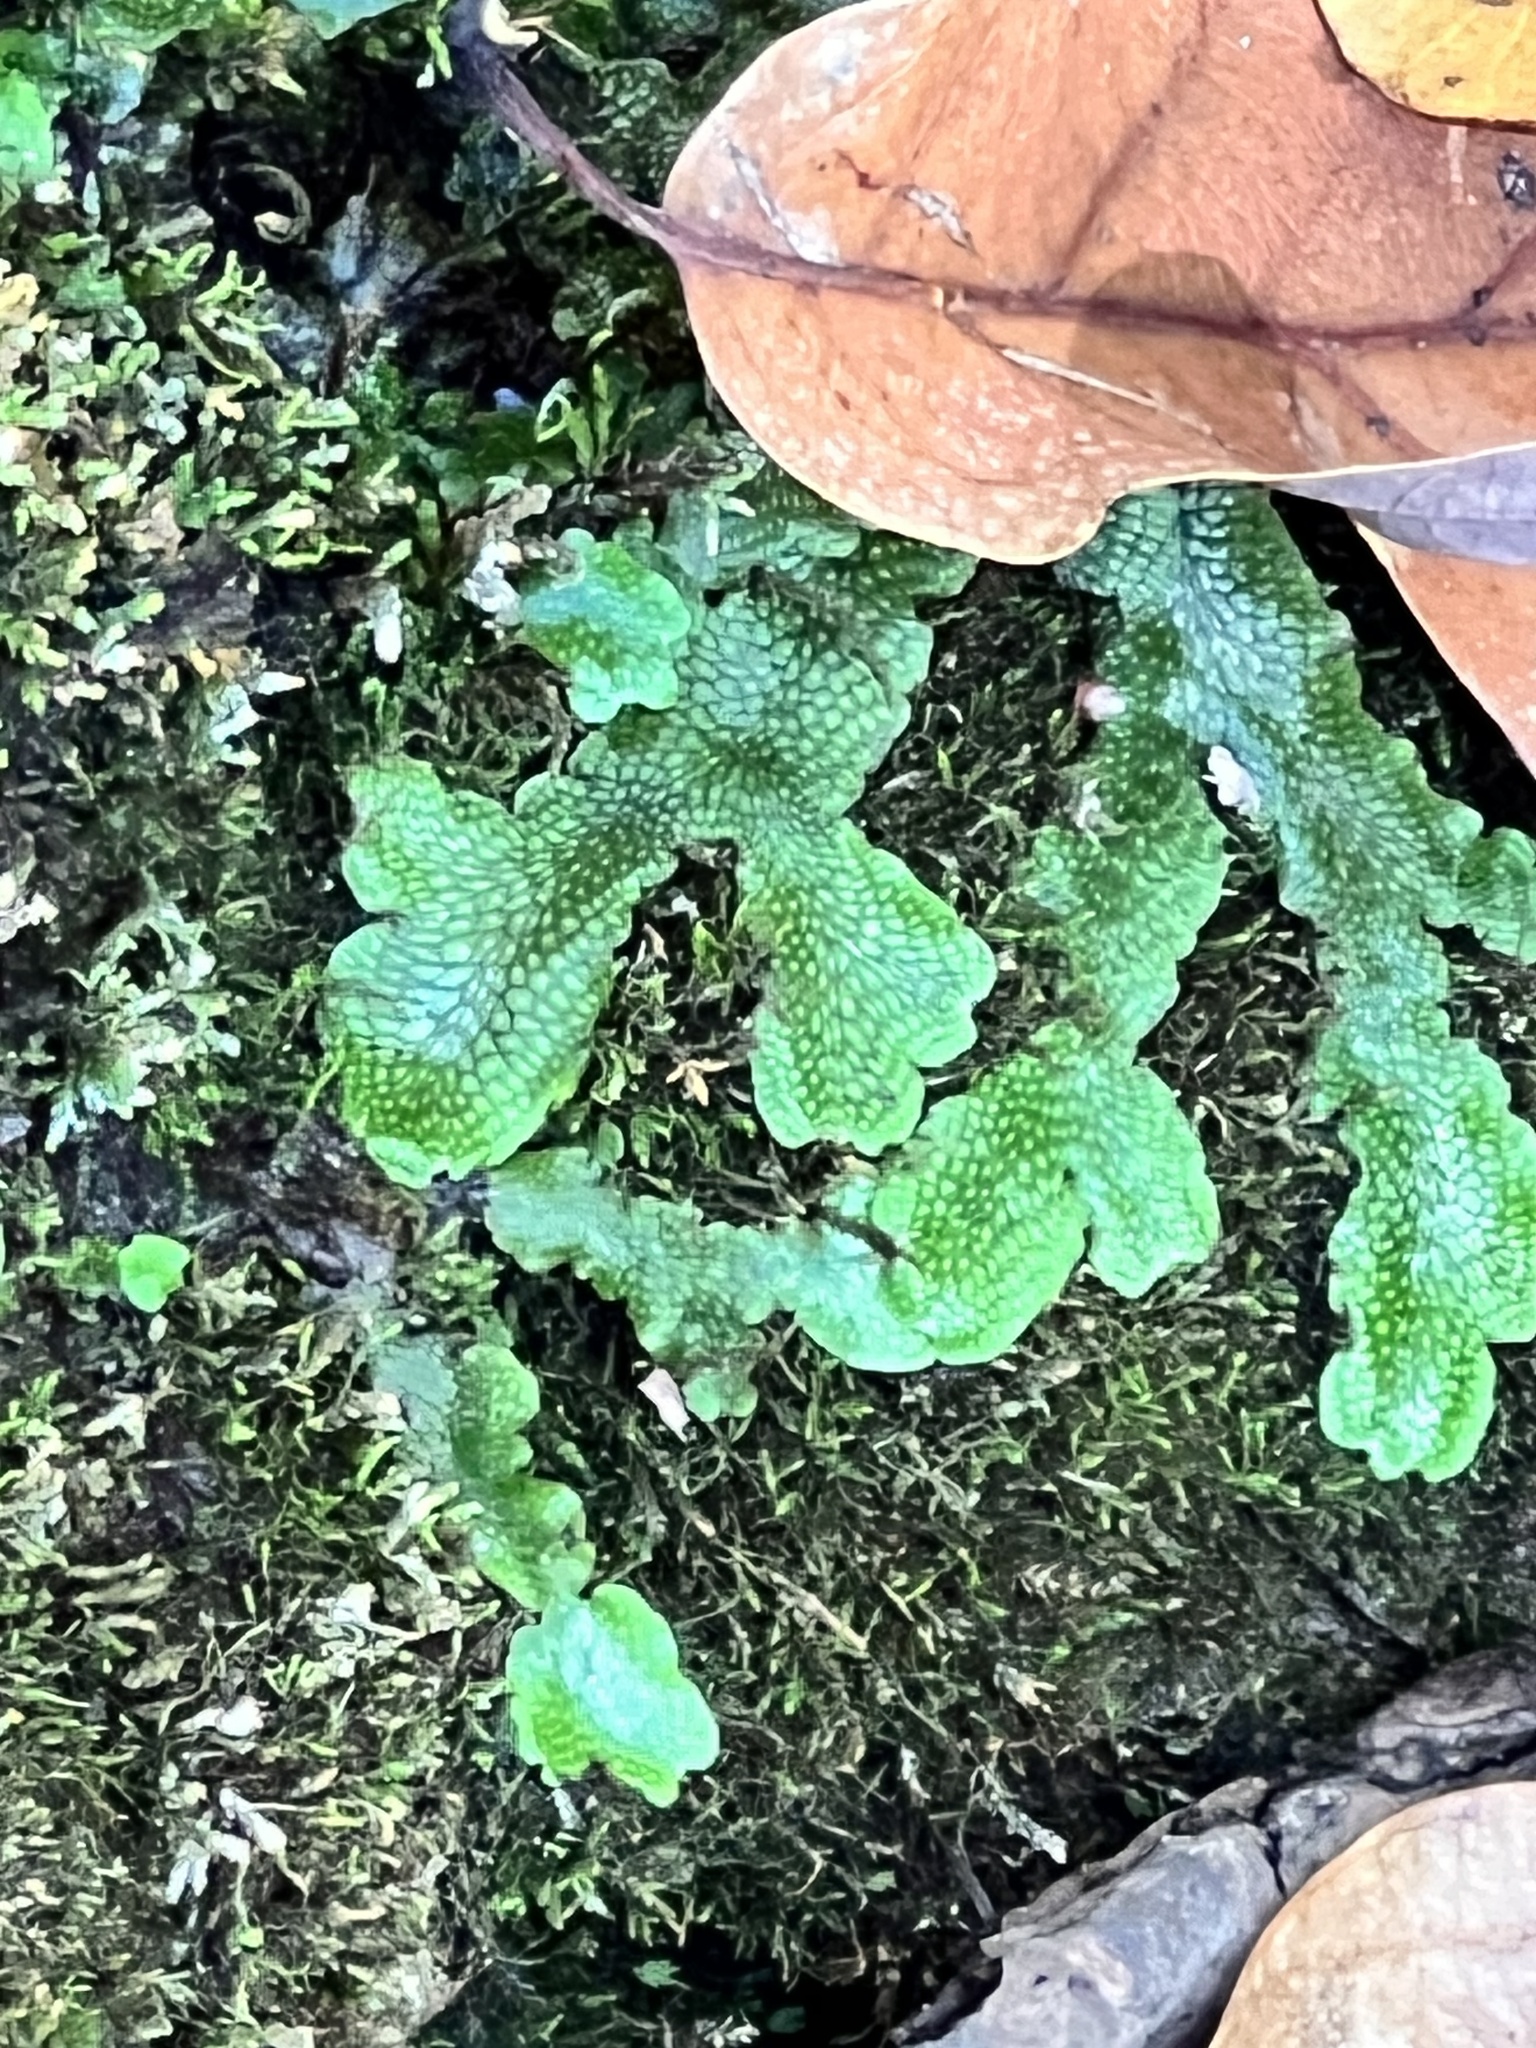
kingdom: Plantae
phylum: Marchantiophyta
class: Marchantiopsida
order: Marchantiales
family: Conocephalaceae
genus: Conocephalum
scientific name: Conocephalum salebrosum
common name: Cat-tongue liverwort
